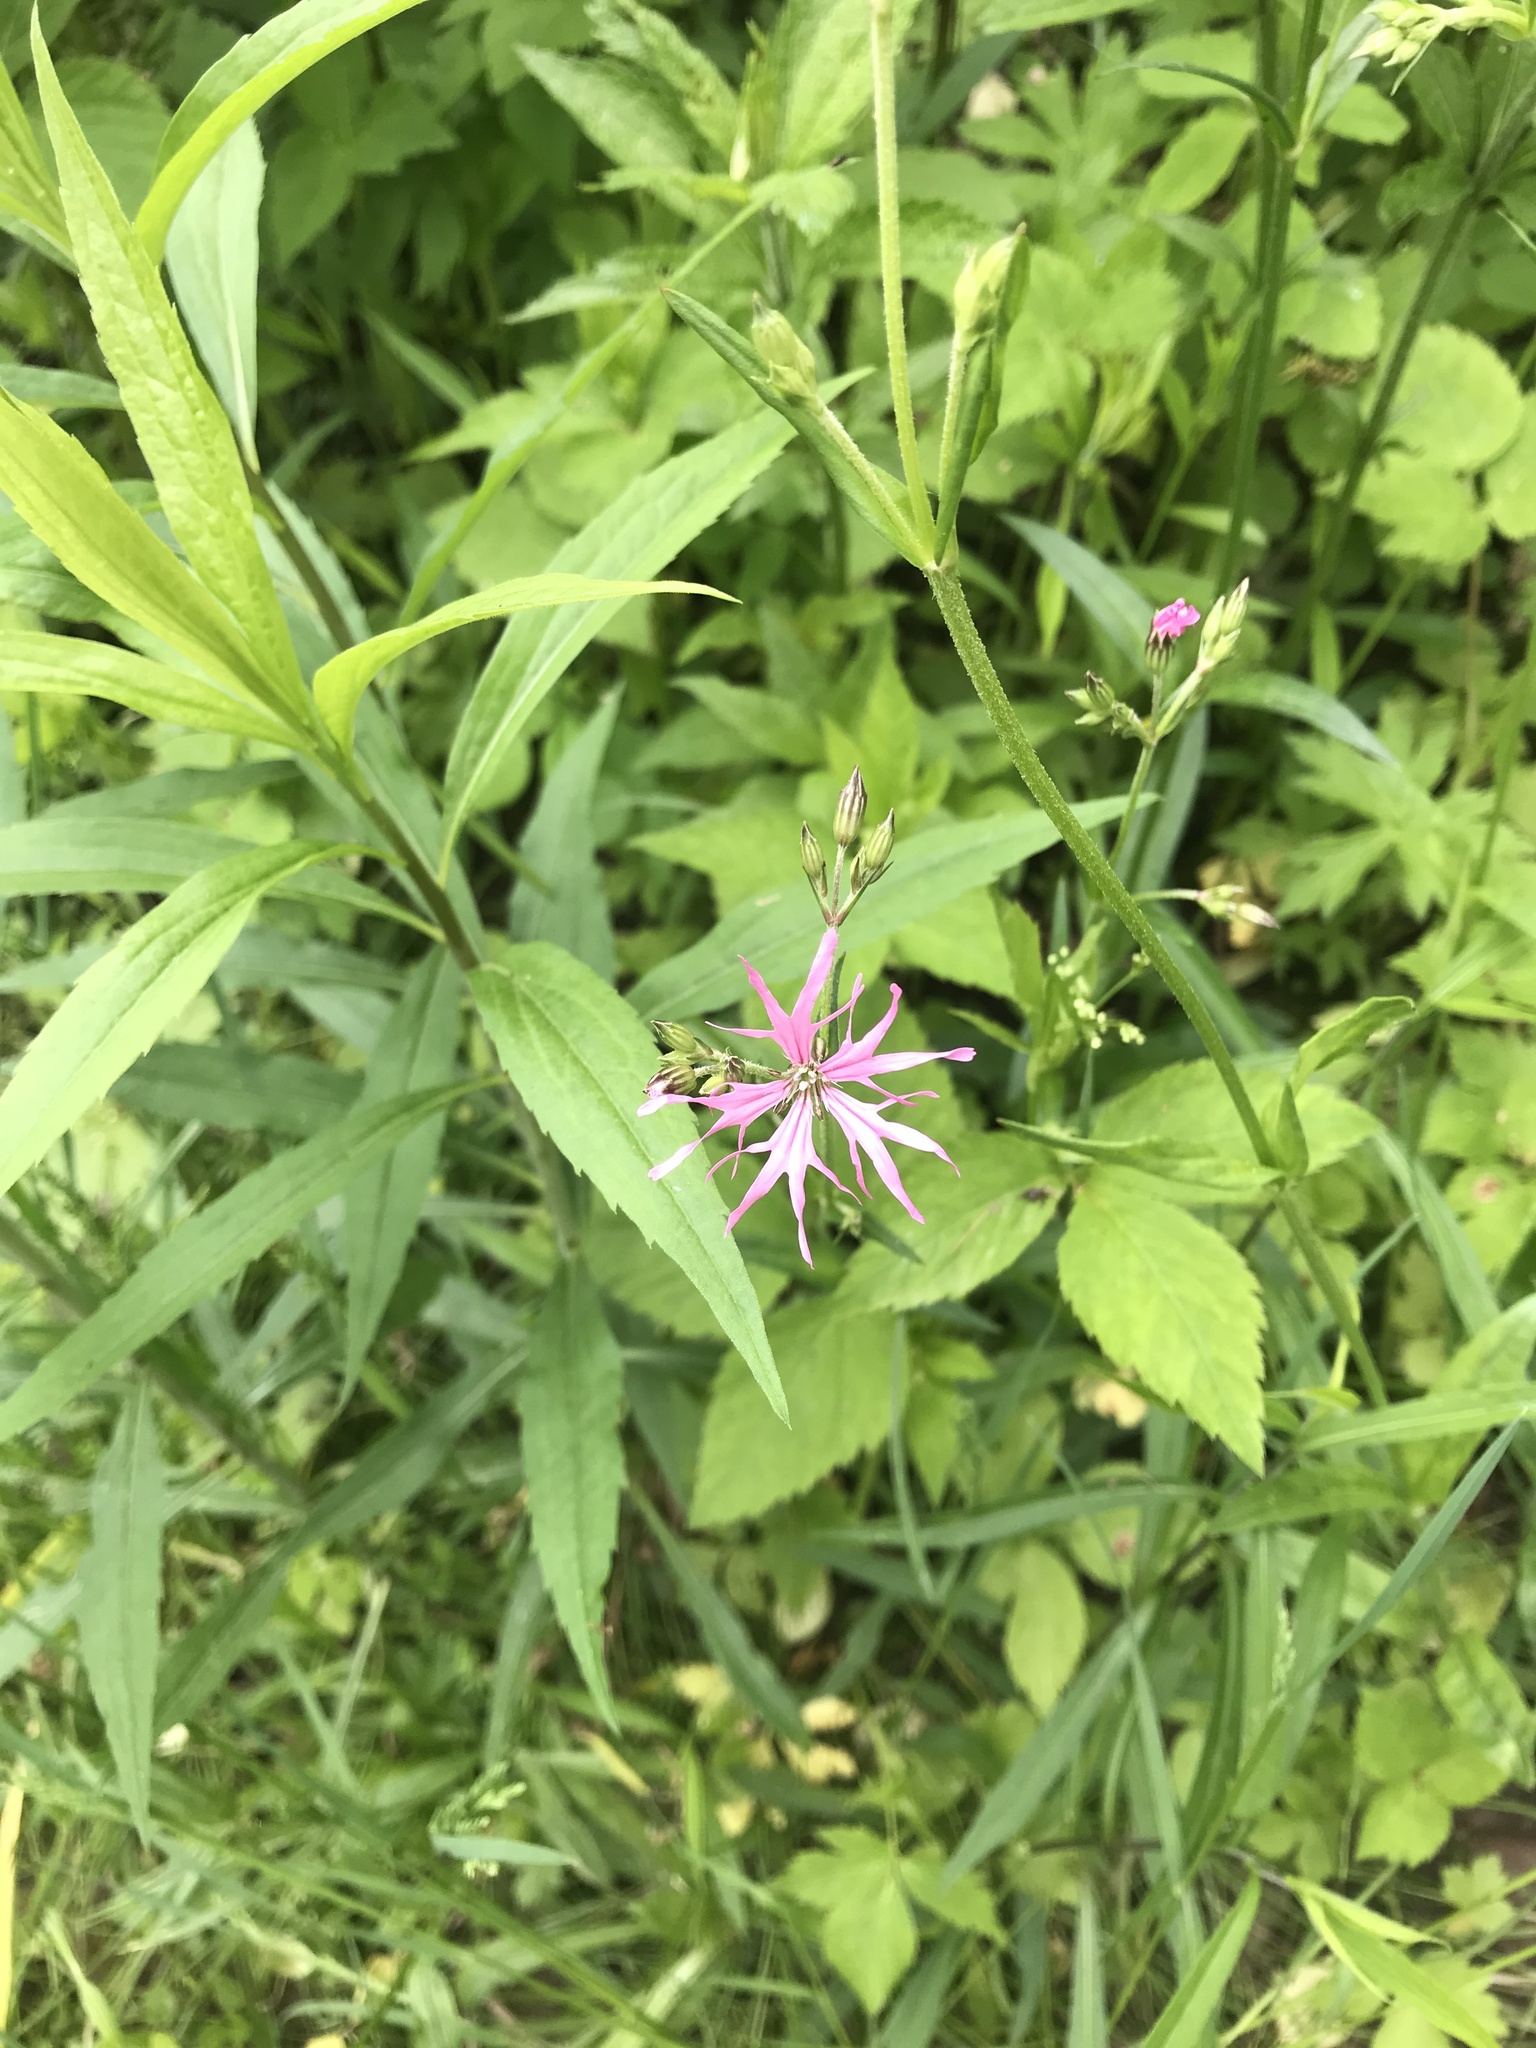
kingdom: Plantae
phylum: Tracheophyta
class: Magnoliopsida
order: Caryophyllales
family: Caryophyllaceae
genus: Silene
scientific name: Silene flos-cuculi
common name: Ragged-robin
